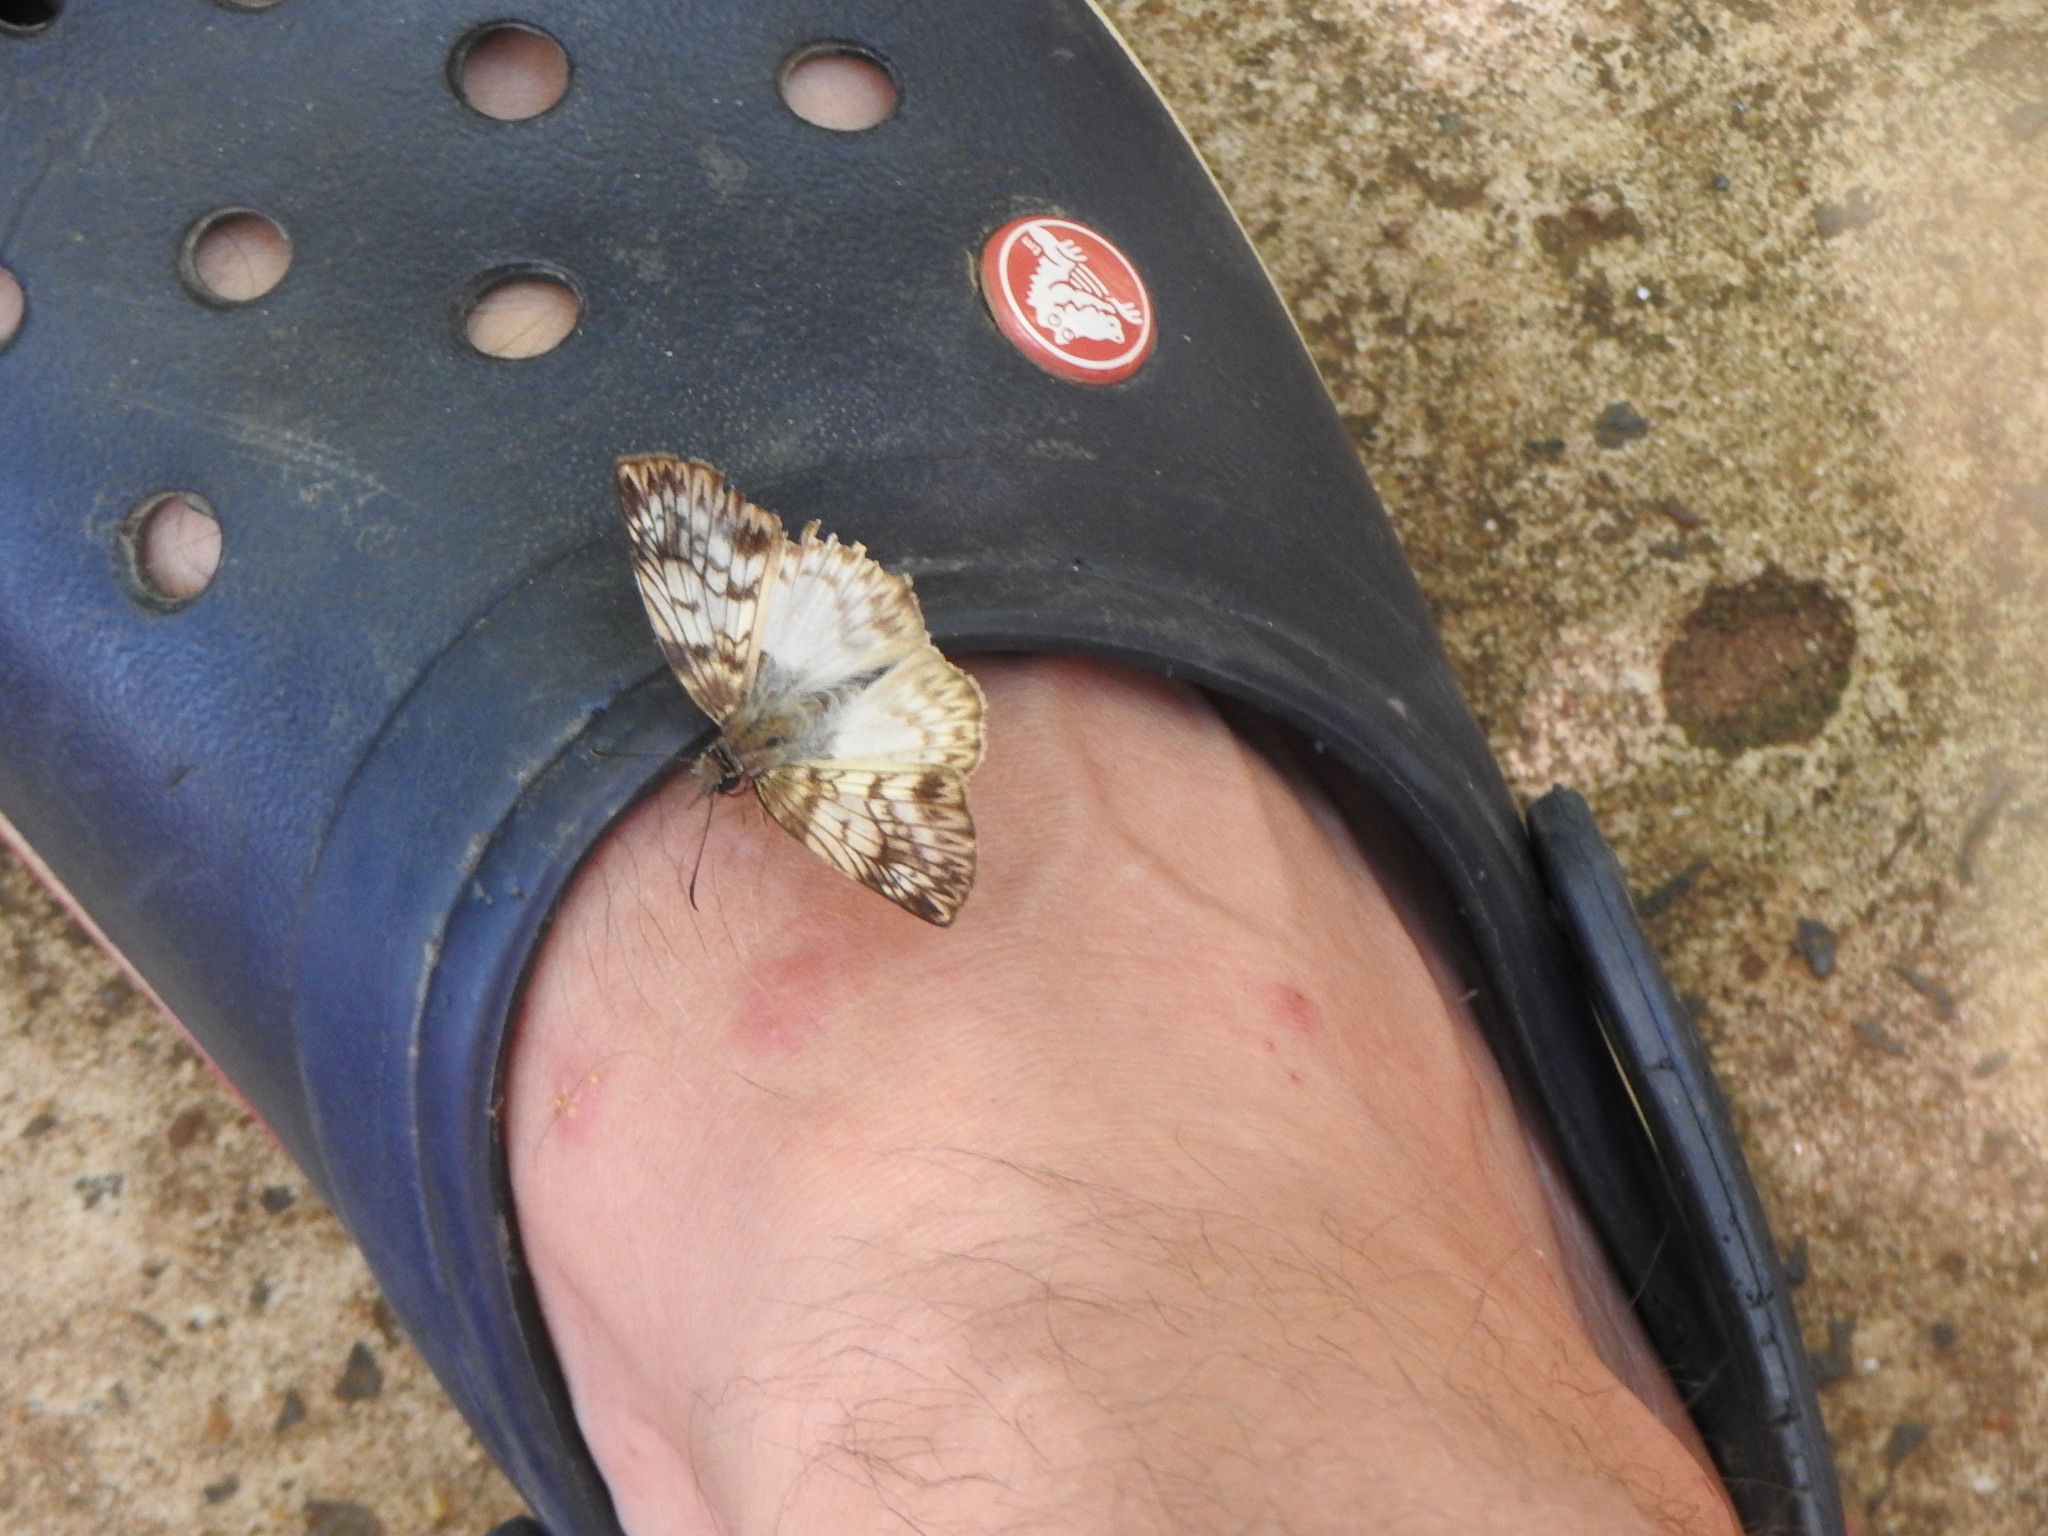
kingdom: Animalia
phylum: Arthropoda
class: Insecta
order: Lepidoptera
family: Hesperiidae
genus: Mylon
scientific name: Mylon maimon
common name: Common mylon
